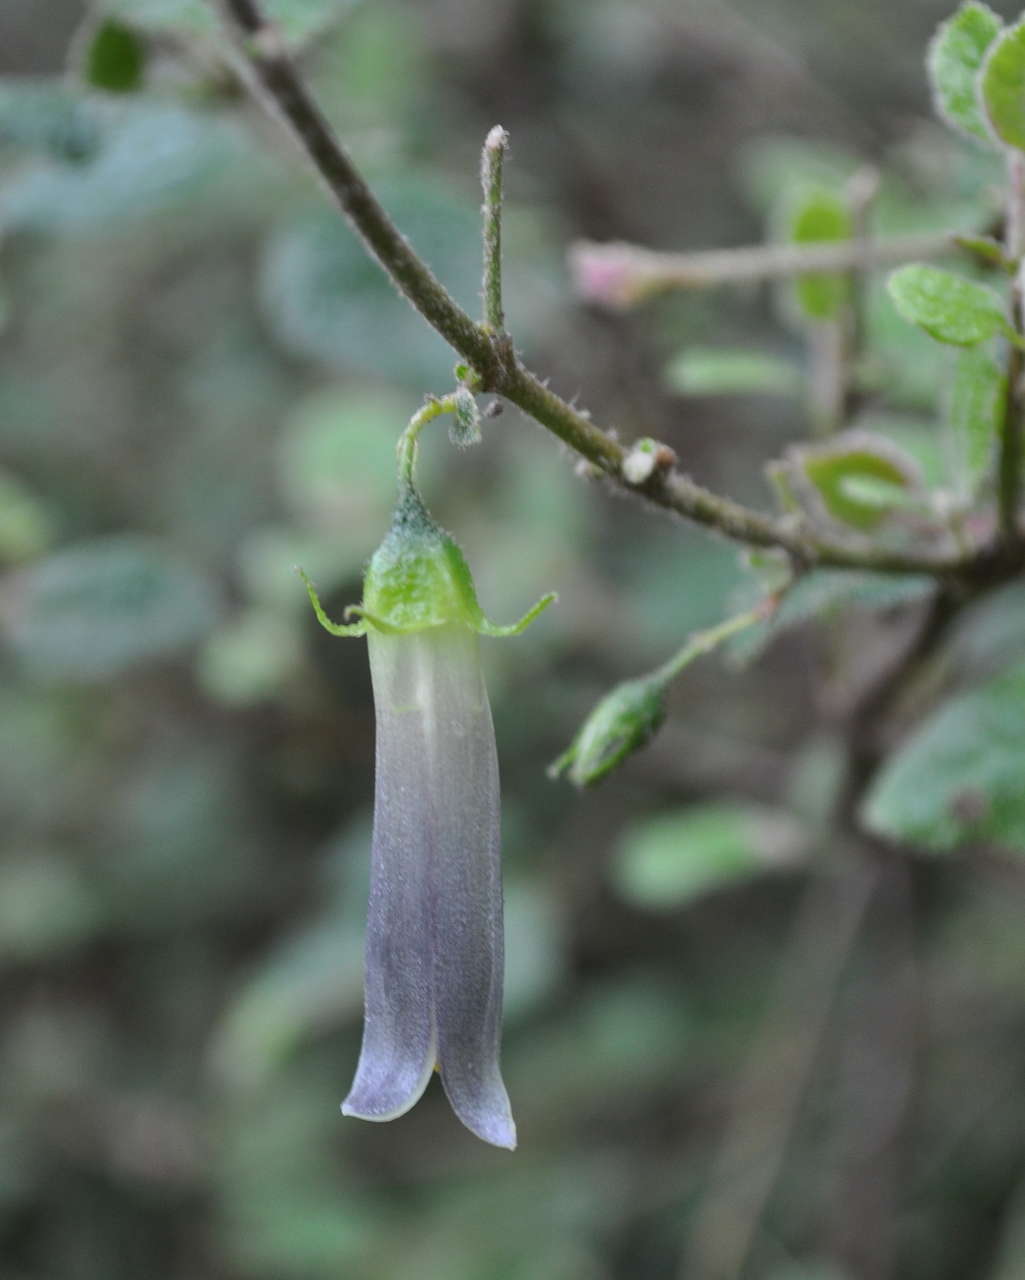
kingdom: Plantae
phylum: Tracheophyta
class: Magnoliopsida
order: Sapindales
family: Rutaceae
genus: Correa
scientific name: Correa aemula
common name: Hairy correa
